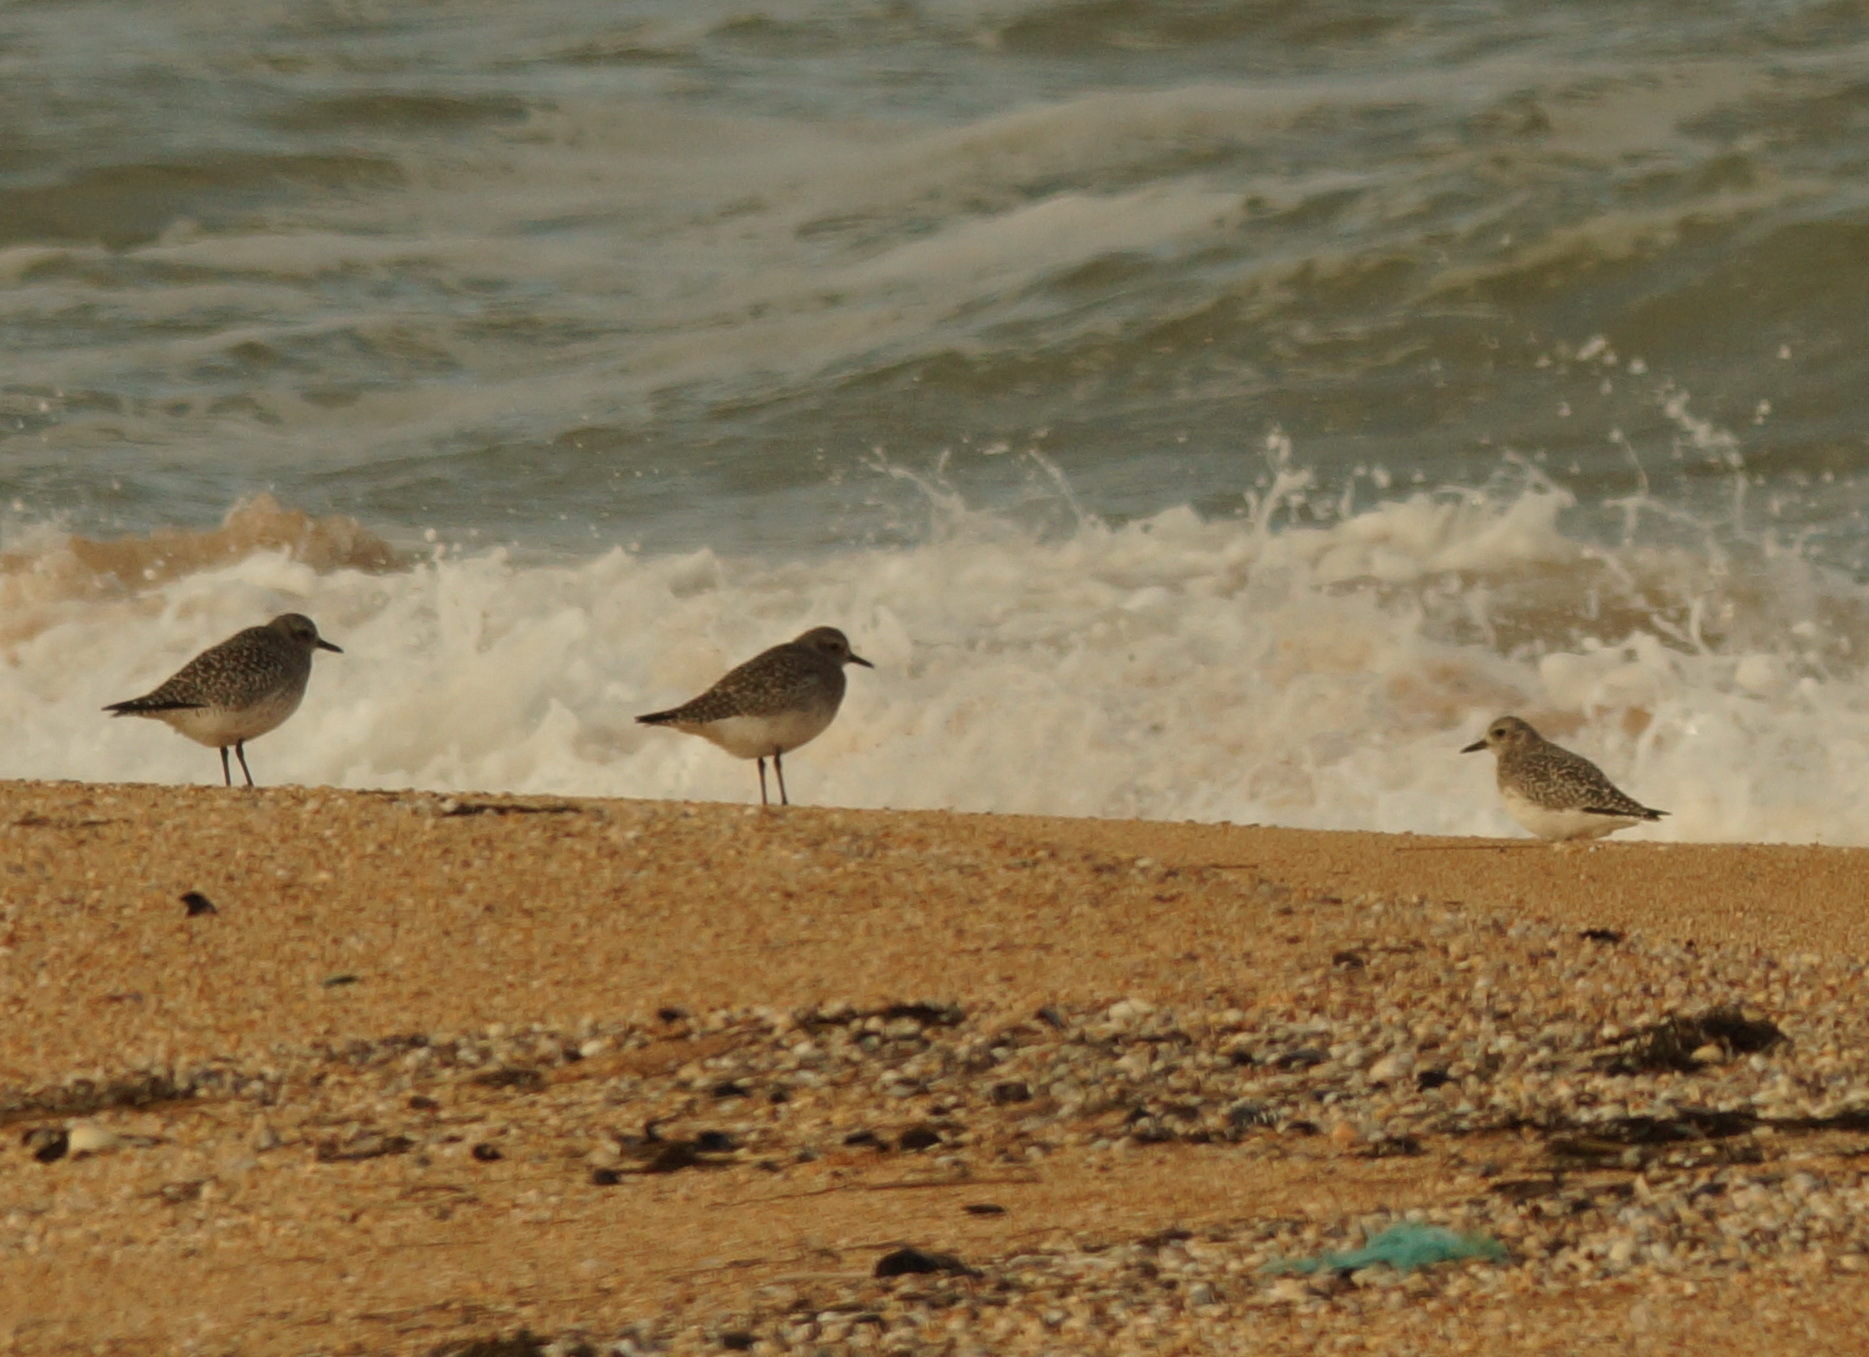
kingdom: Animalia
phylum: Chordata
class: Aves
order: Charadriiformes
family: Charadriidae
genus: Pluvialis
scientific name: Pluvialis squatarola
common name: Grey plover
